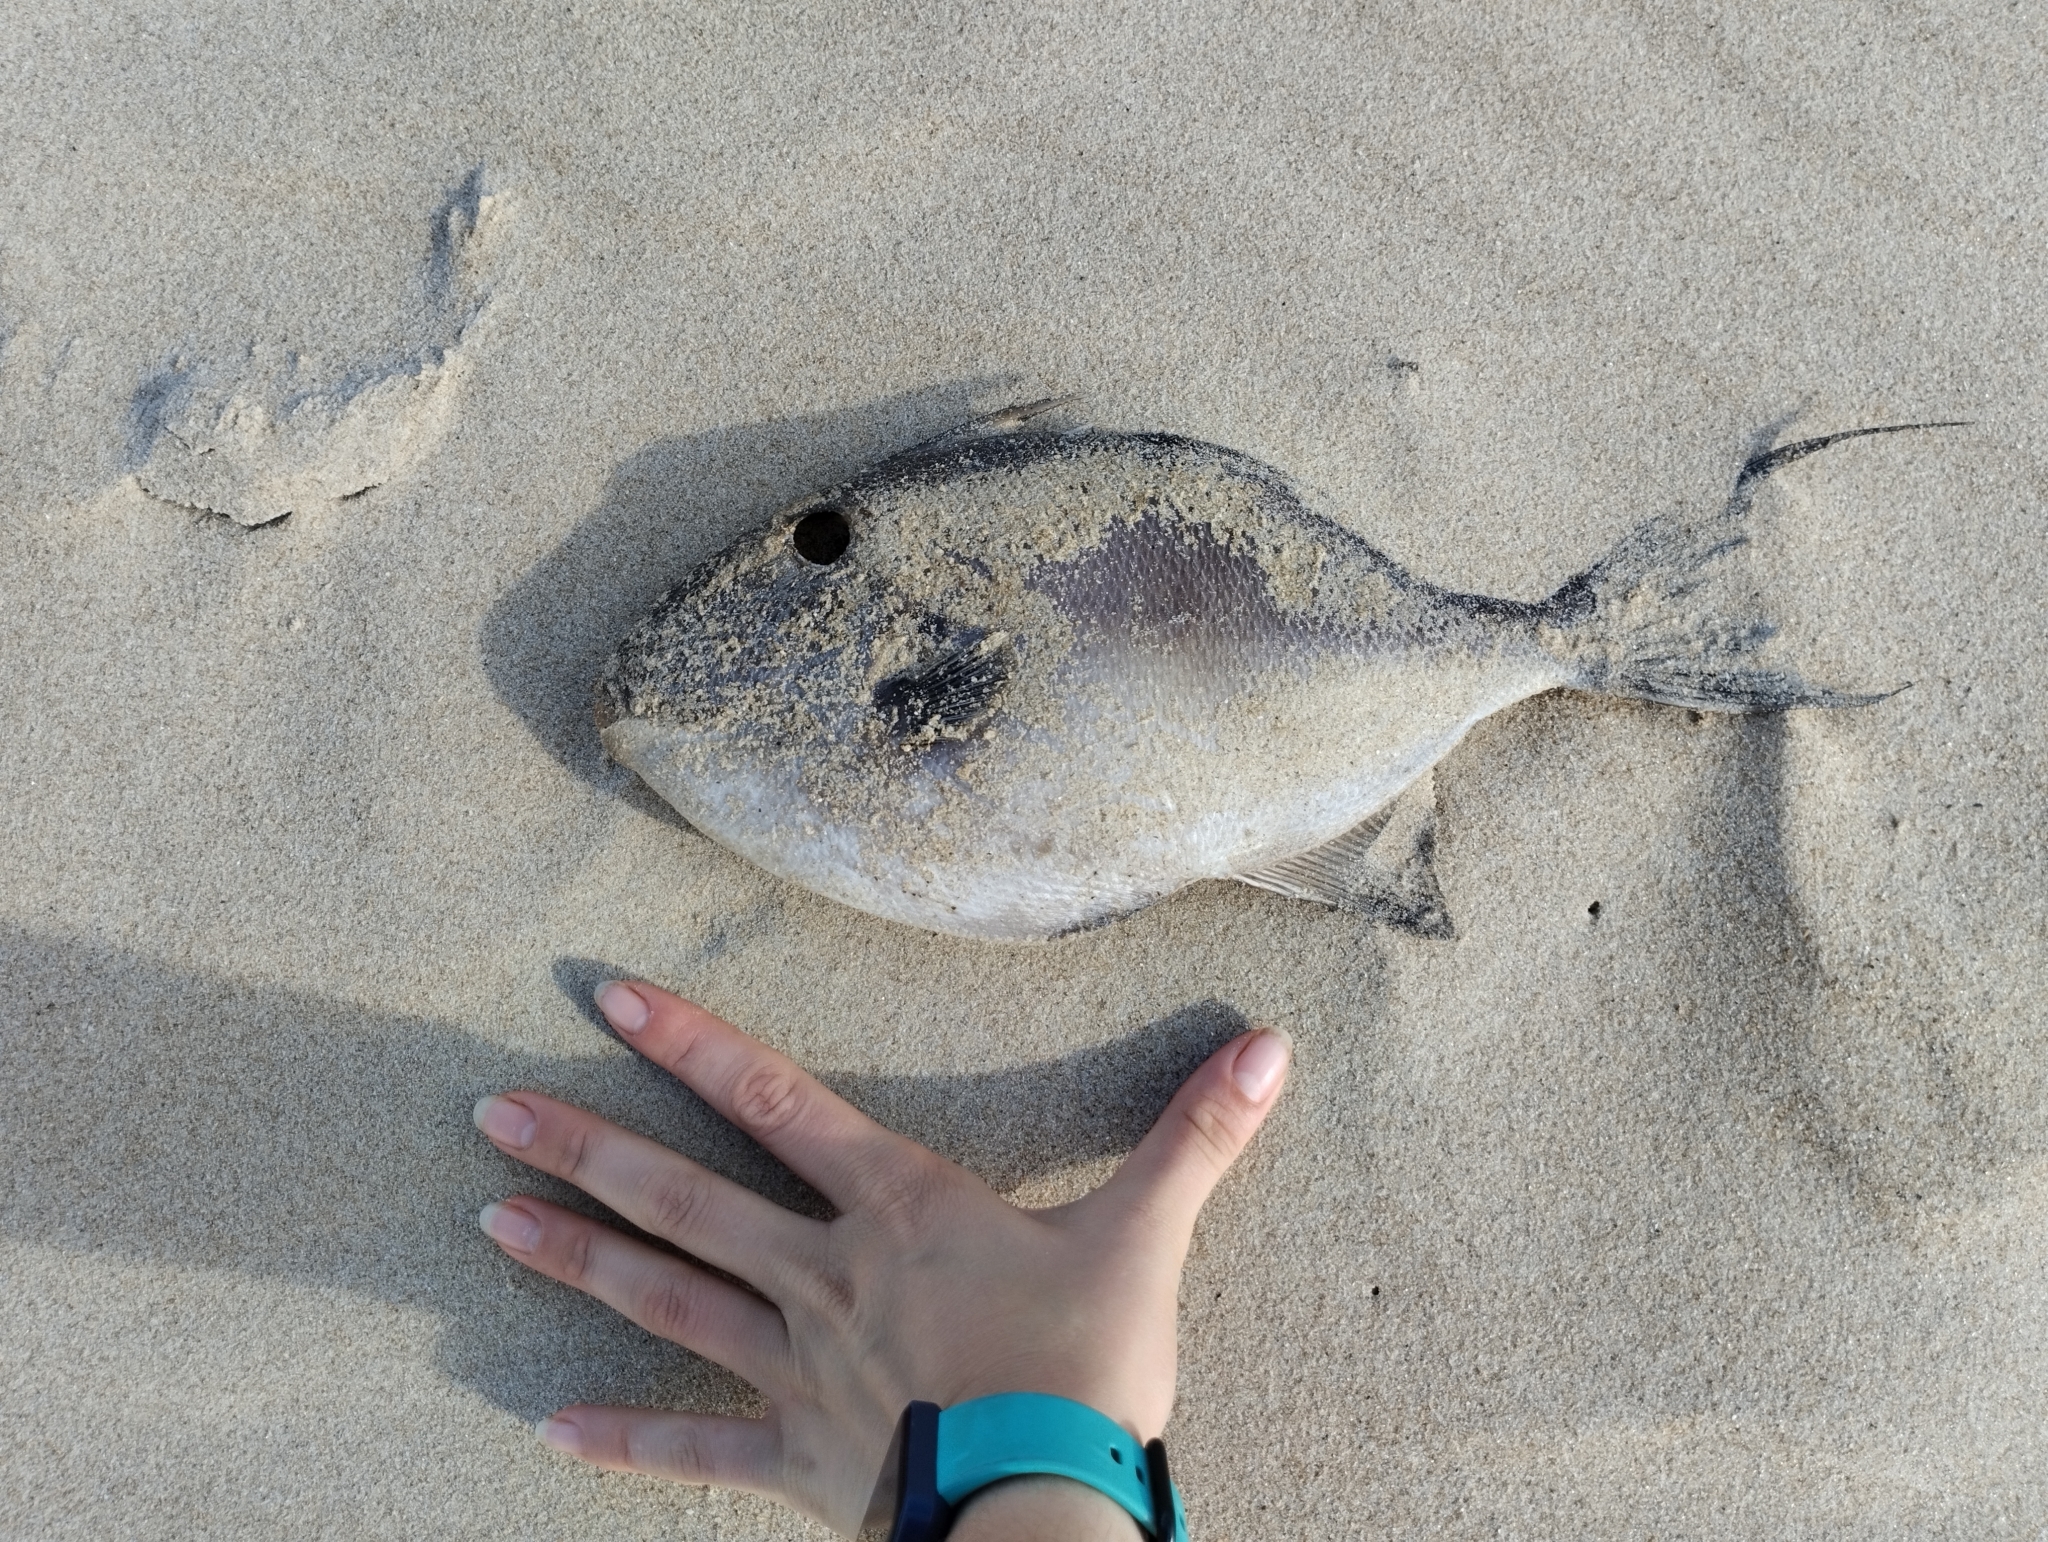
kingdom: Animalia
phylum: Chordata
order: Tetraodontiformes
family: Balistidae
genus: Balistes
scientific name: Balistes capriscus
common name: Grey triggerfish
